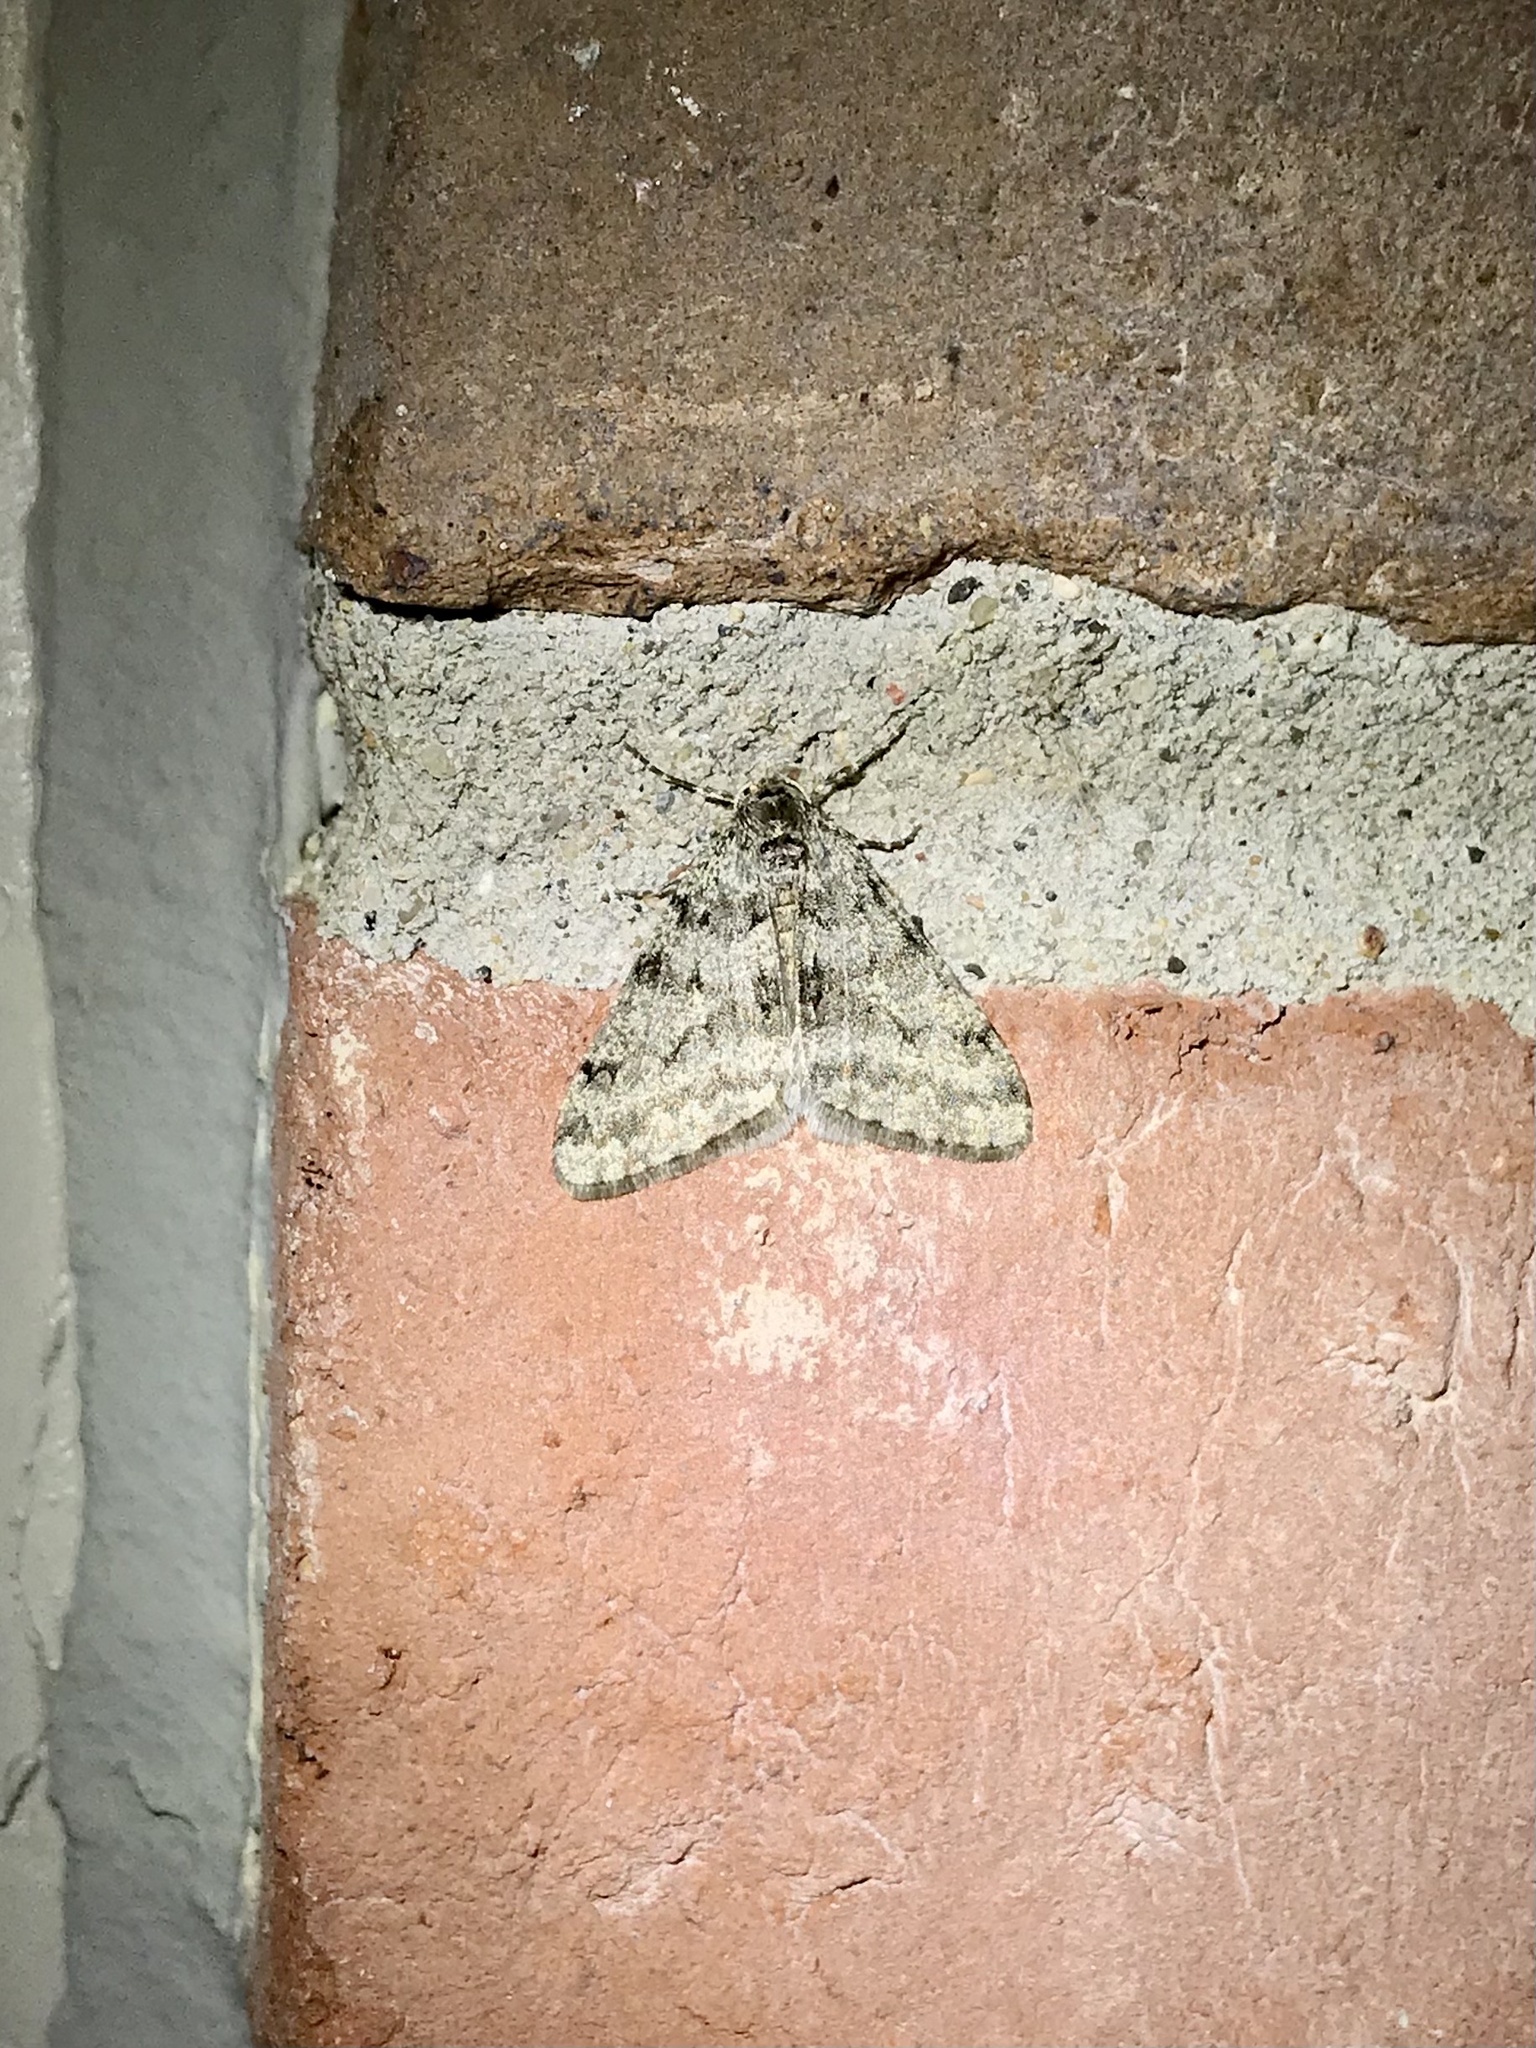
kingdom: Animalia
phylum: Arthropoda
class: Insecta
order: Lepidoptera
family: Geometridae
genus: Phigalia
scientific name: Phigalia strigataria
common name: Small phigalia
